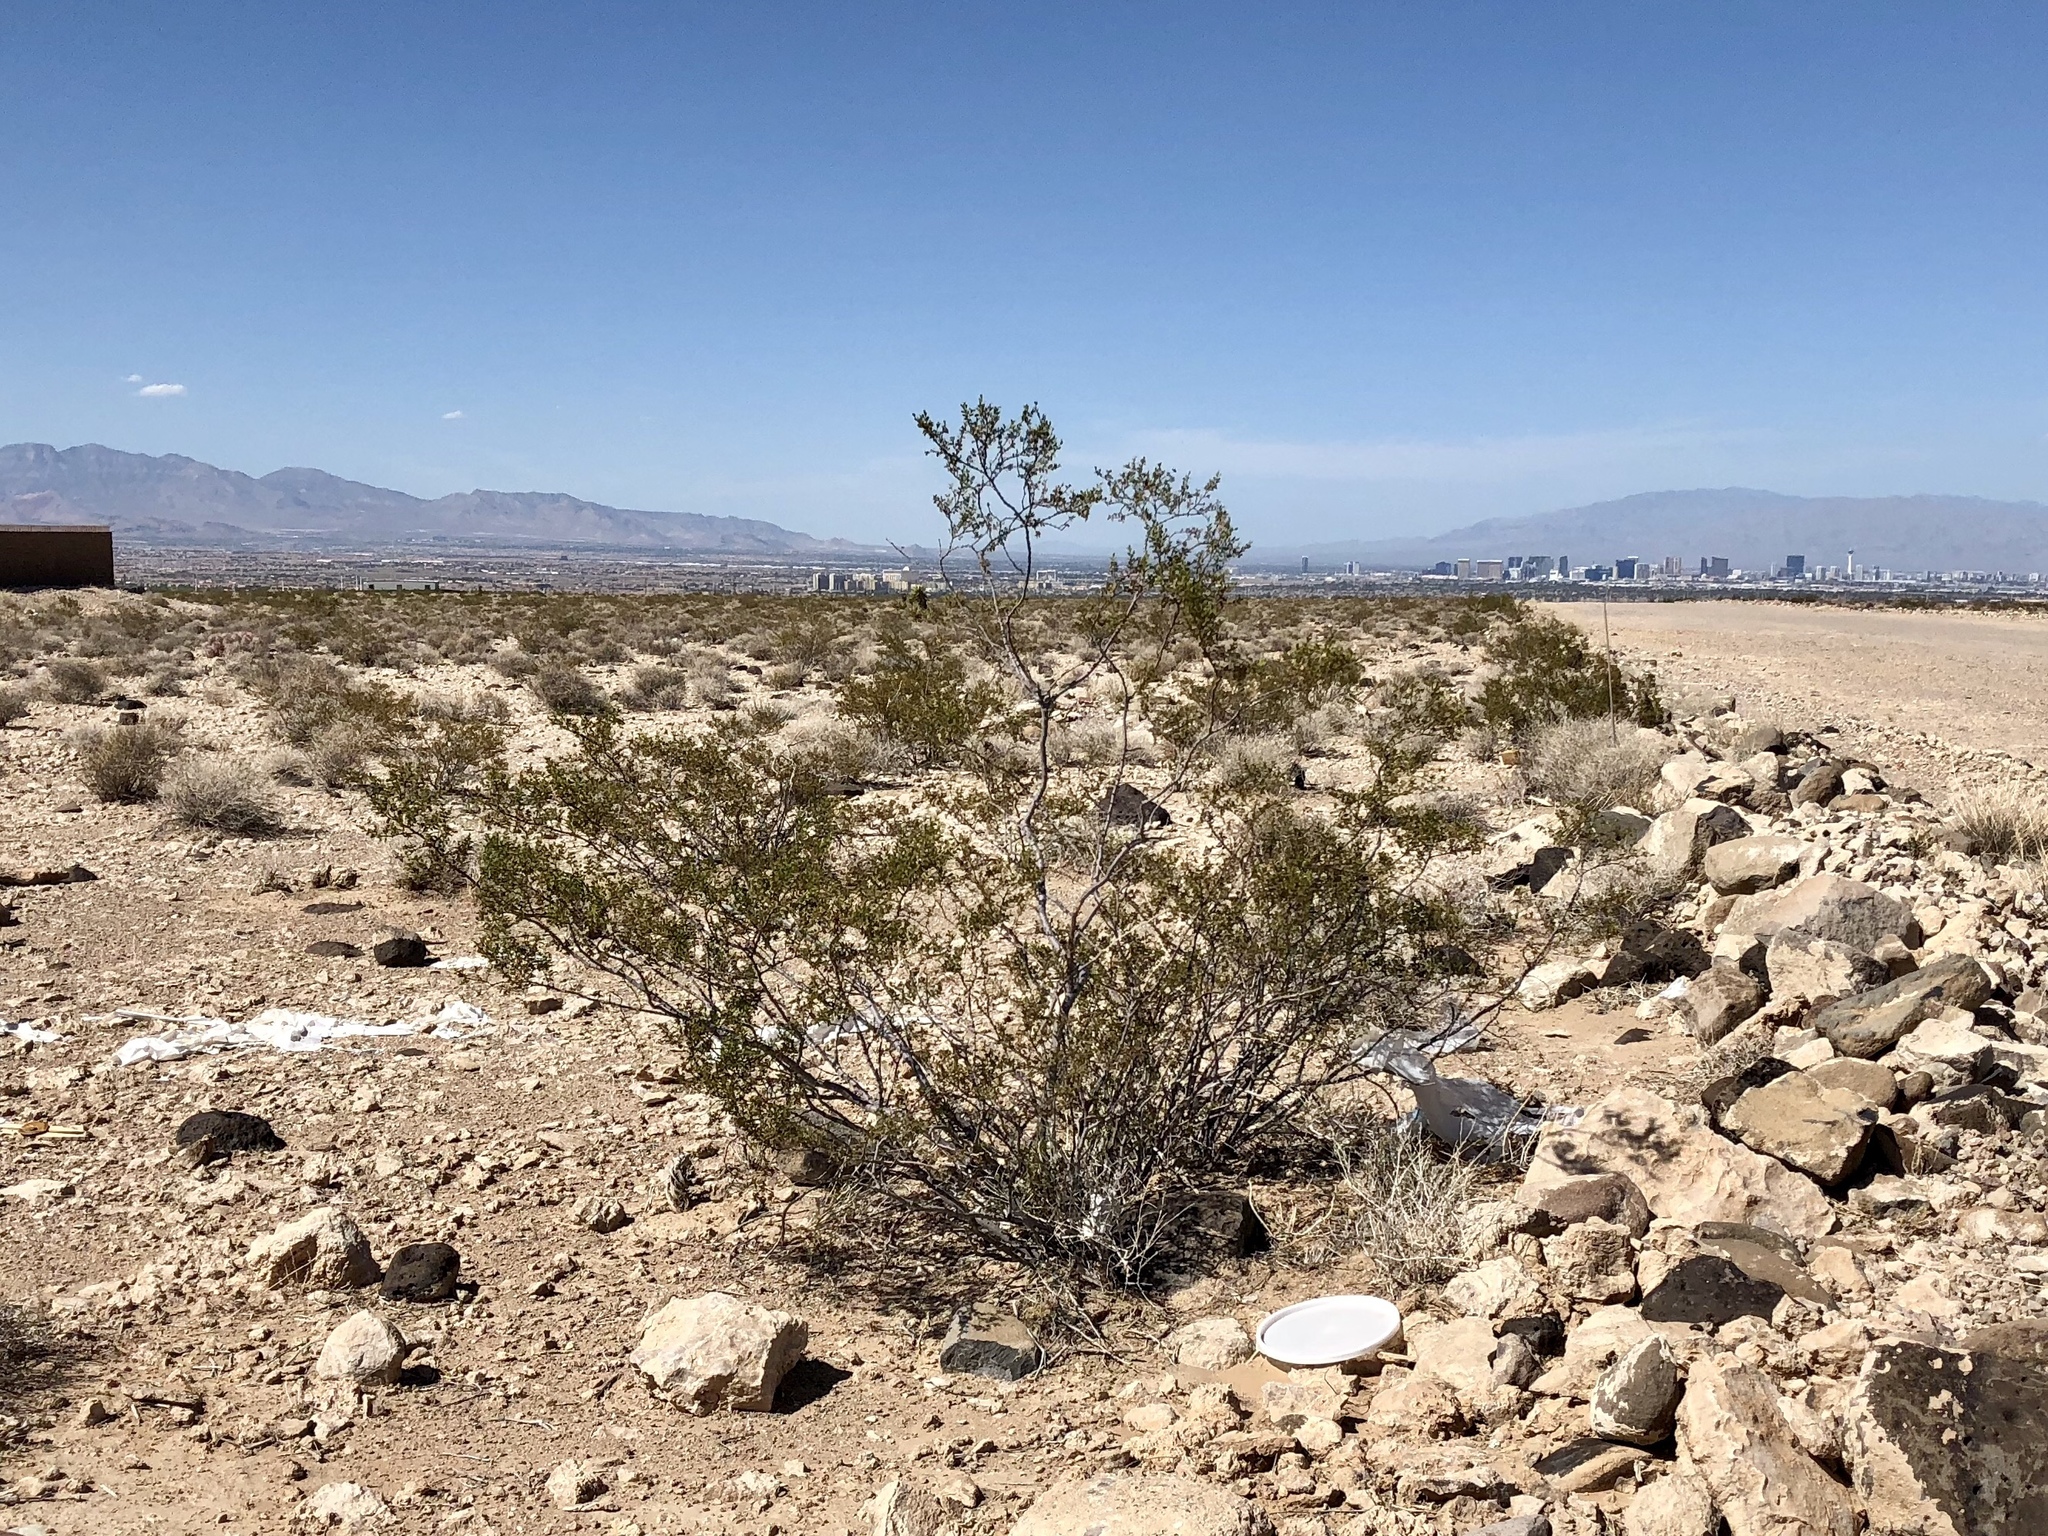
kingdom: Plantae
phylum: Tracheophyta
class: Magnoliopsida
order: Zygophyllales
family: Zygophyllaceae
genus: Larrea
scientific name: Larrea tridentata
